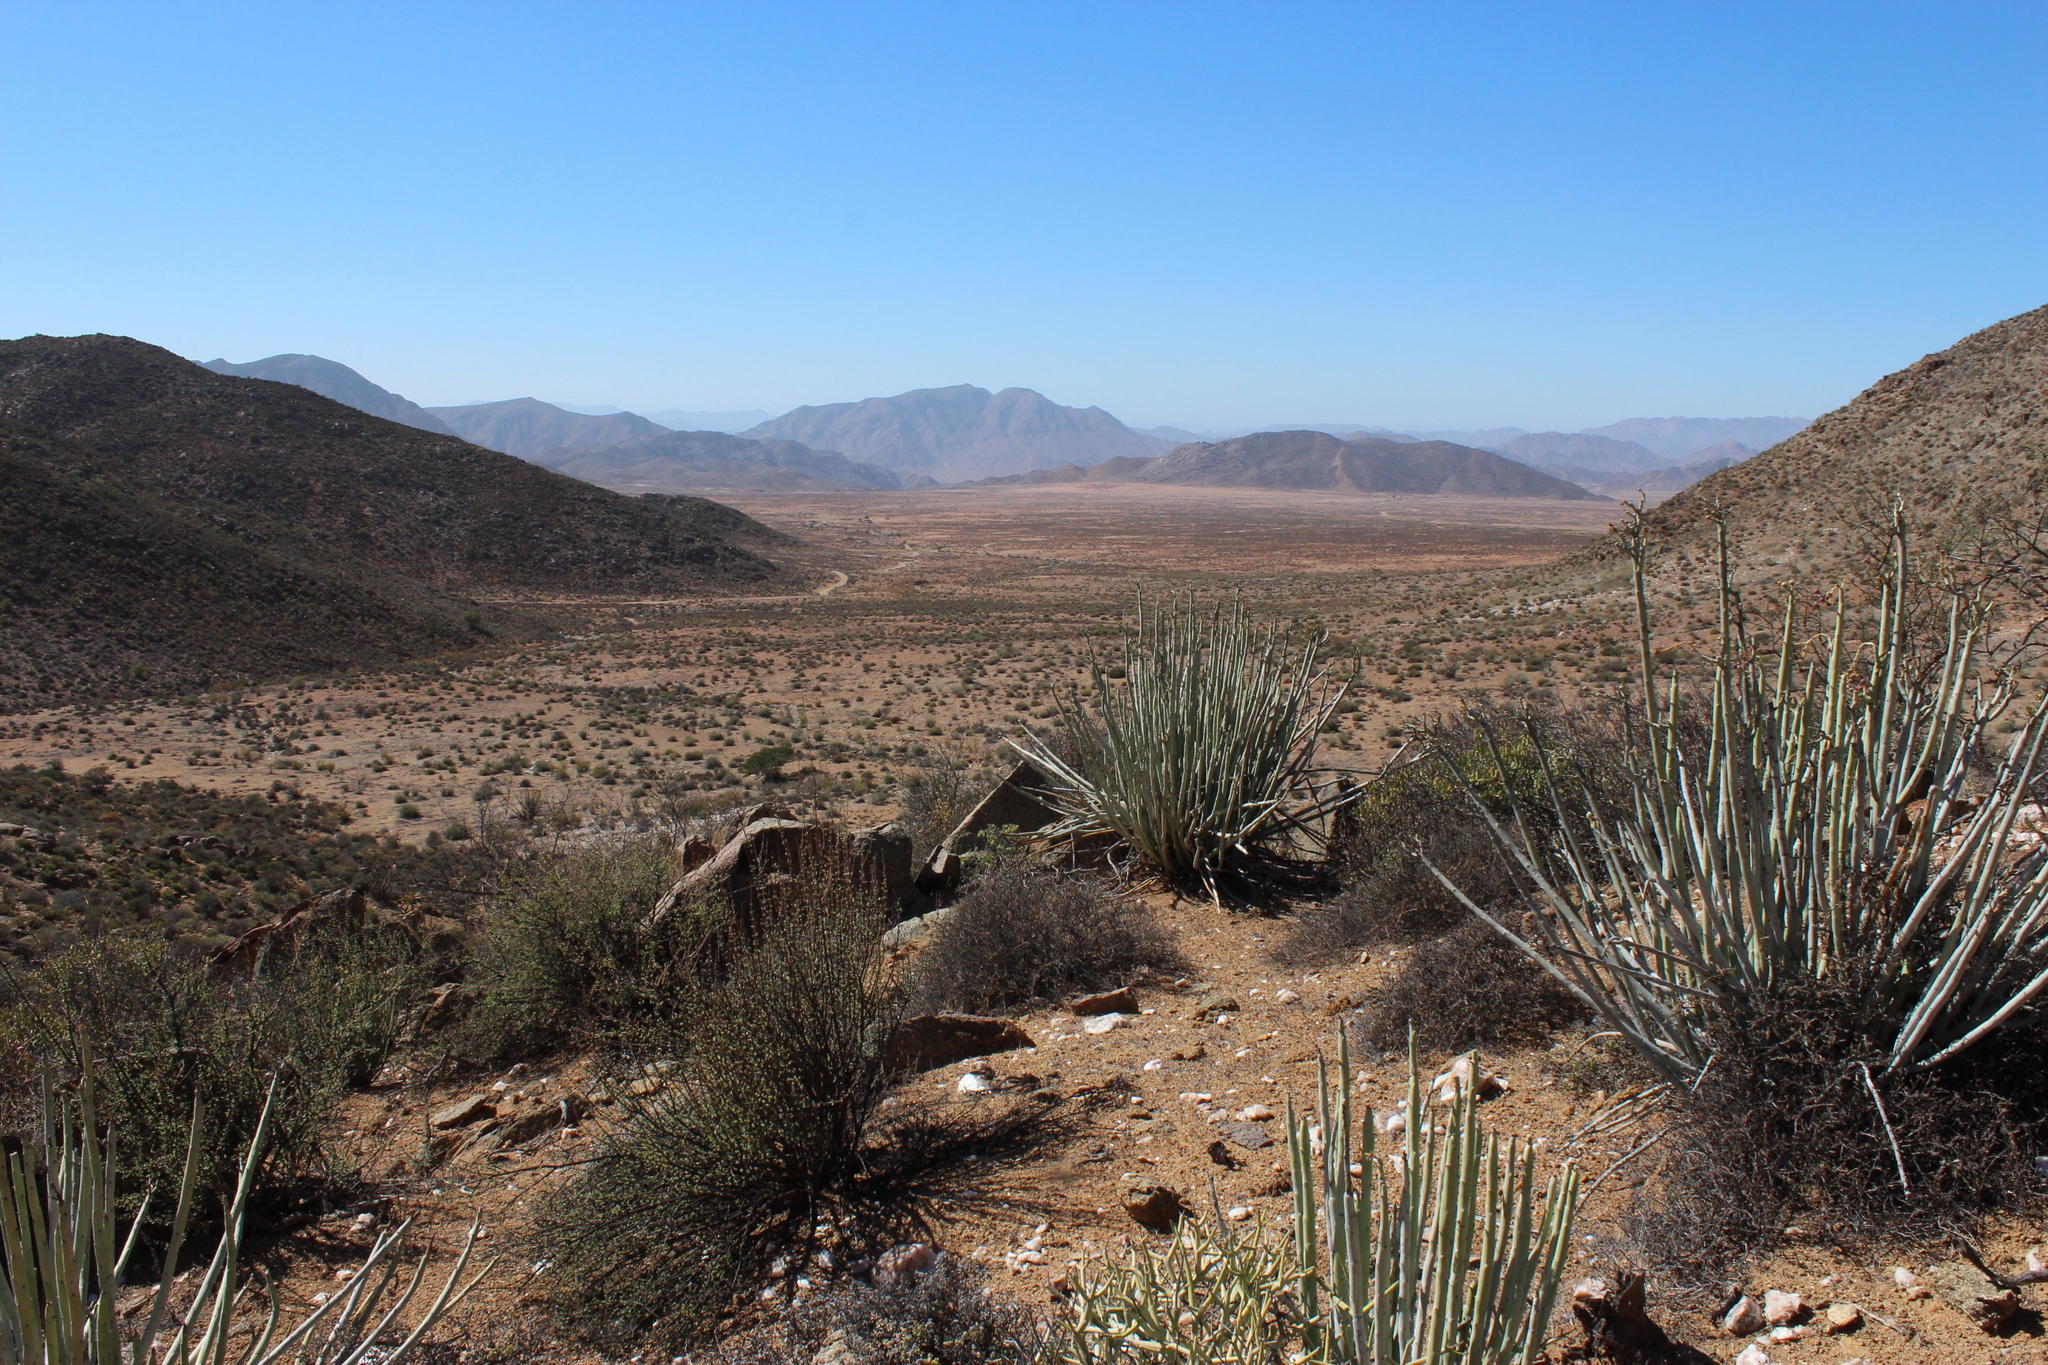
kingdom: Plantae
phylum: Tracheophyta
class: Magnoliopsida
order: Malpighiales
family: Euphorbiaceae
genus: Euphorbia
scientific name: Euphorbia dregeana
